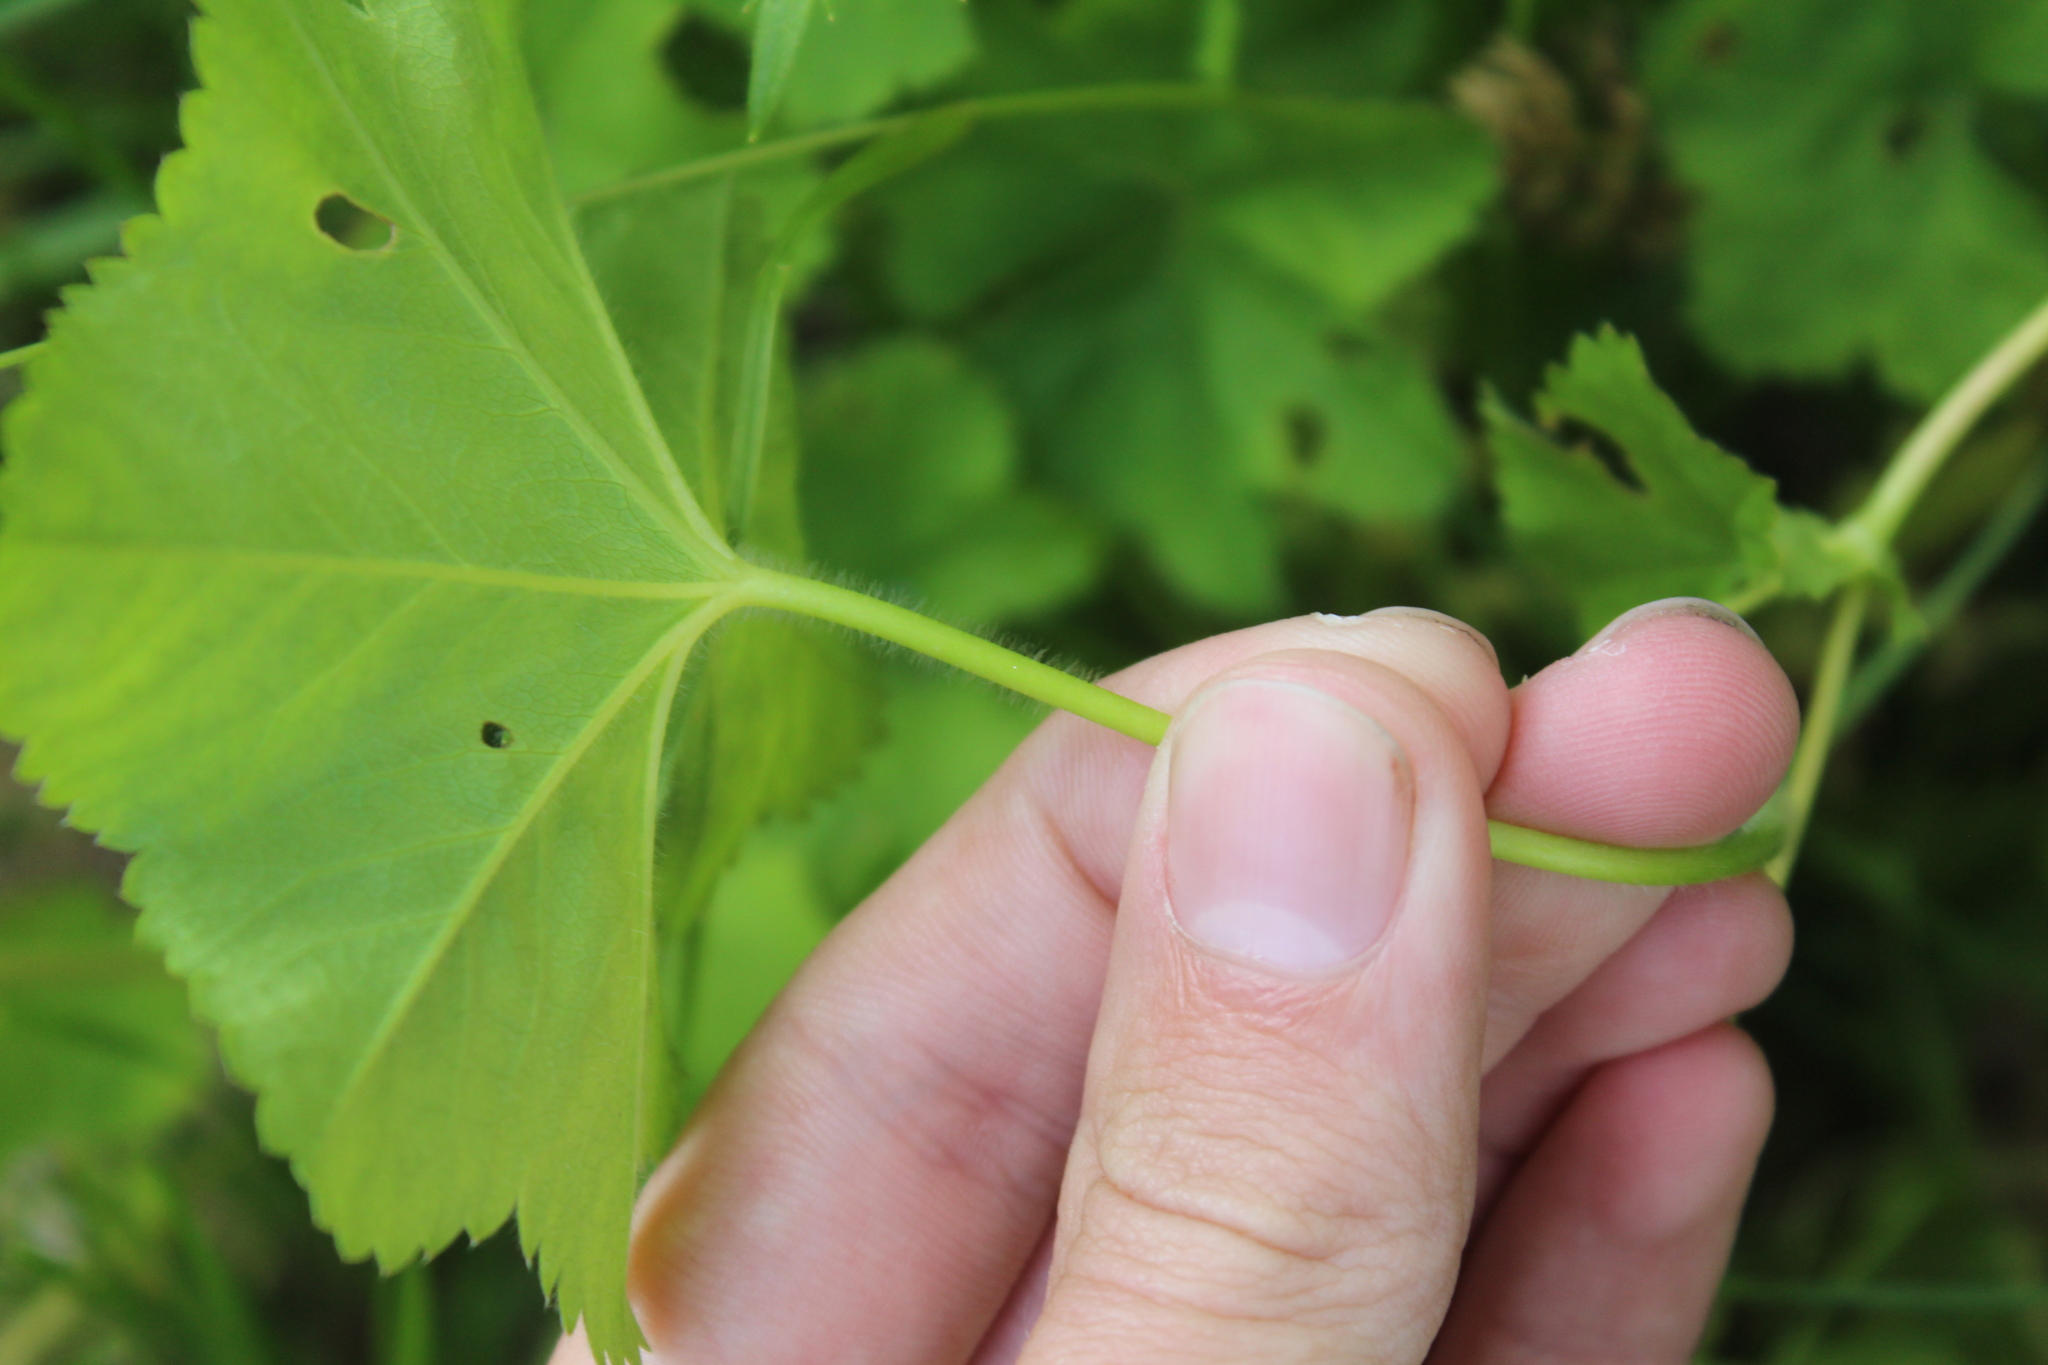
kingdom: Plantae
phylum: Tracheophyta
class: Magnoliopsida
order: Rosales
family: Rosaceae
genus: Alchemilla
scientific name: Alchemilla
